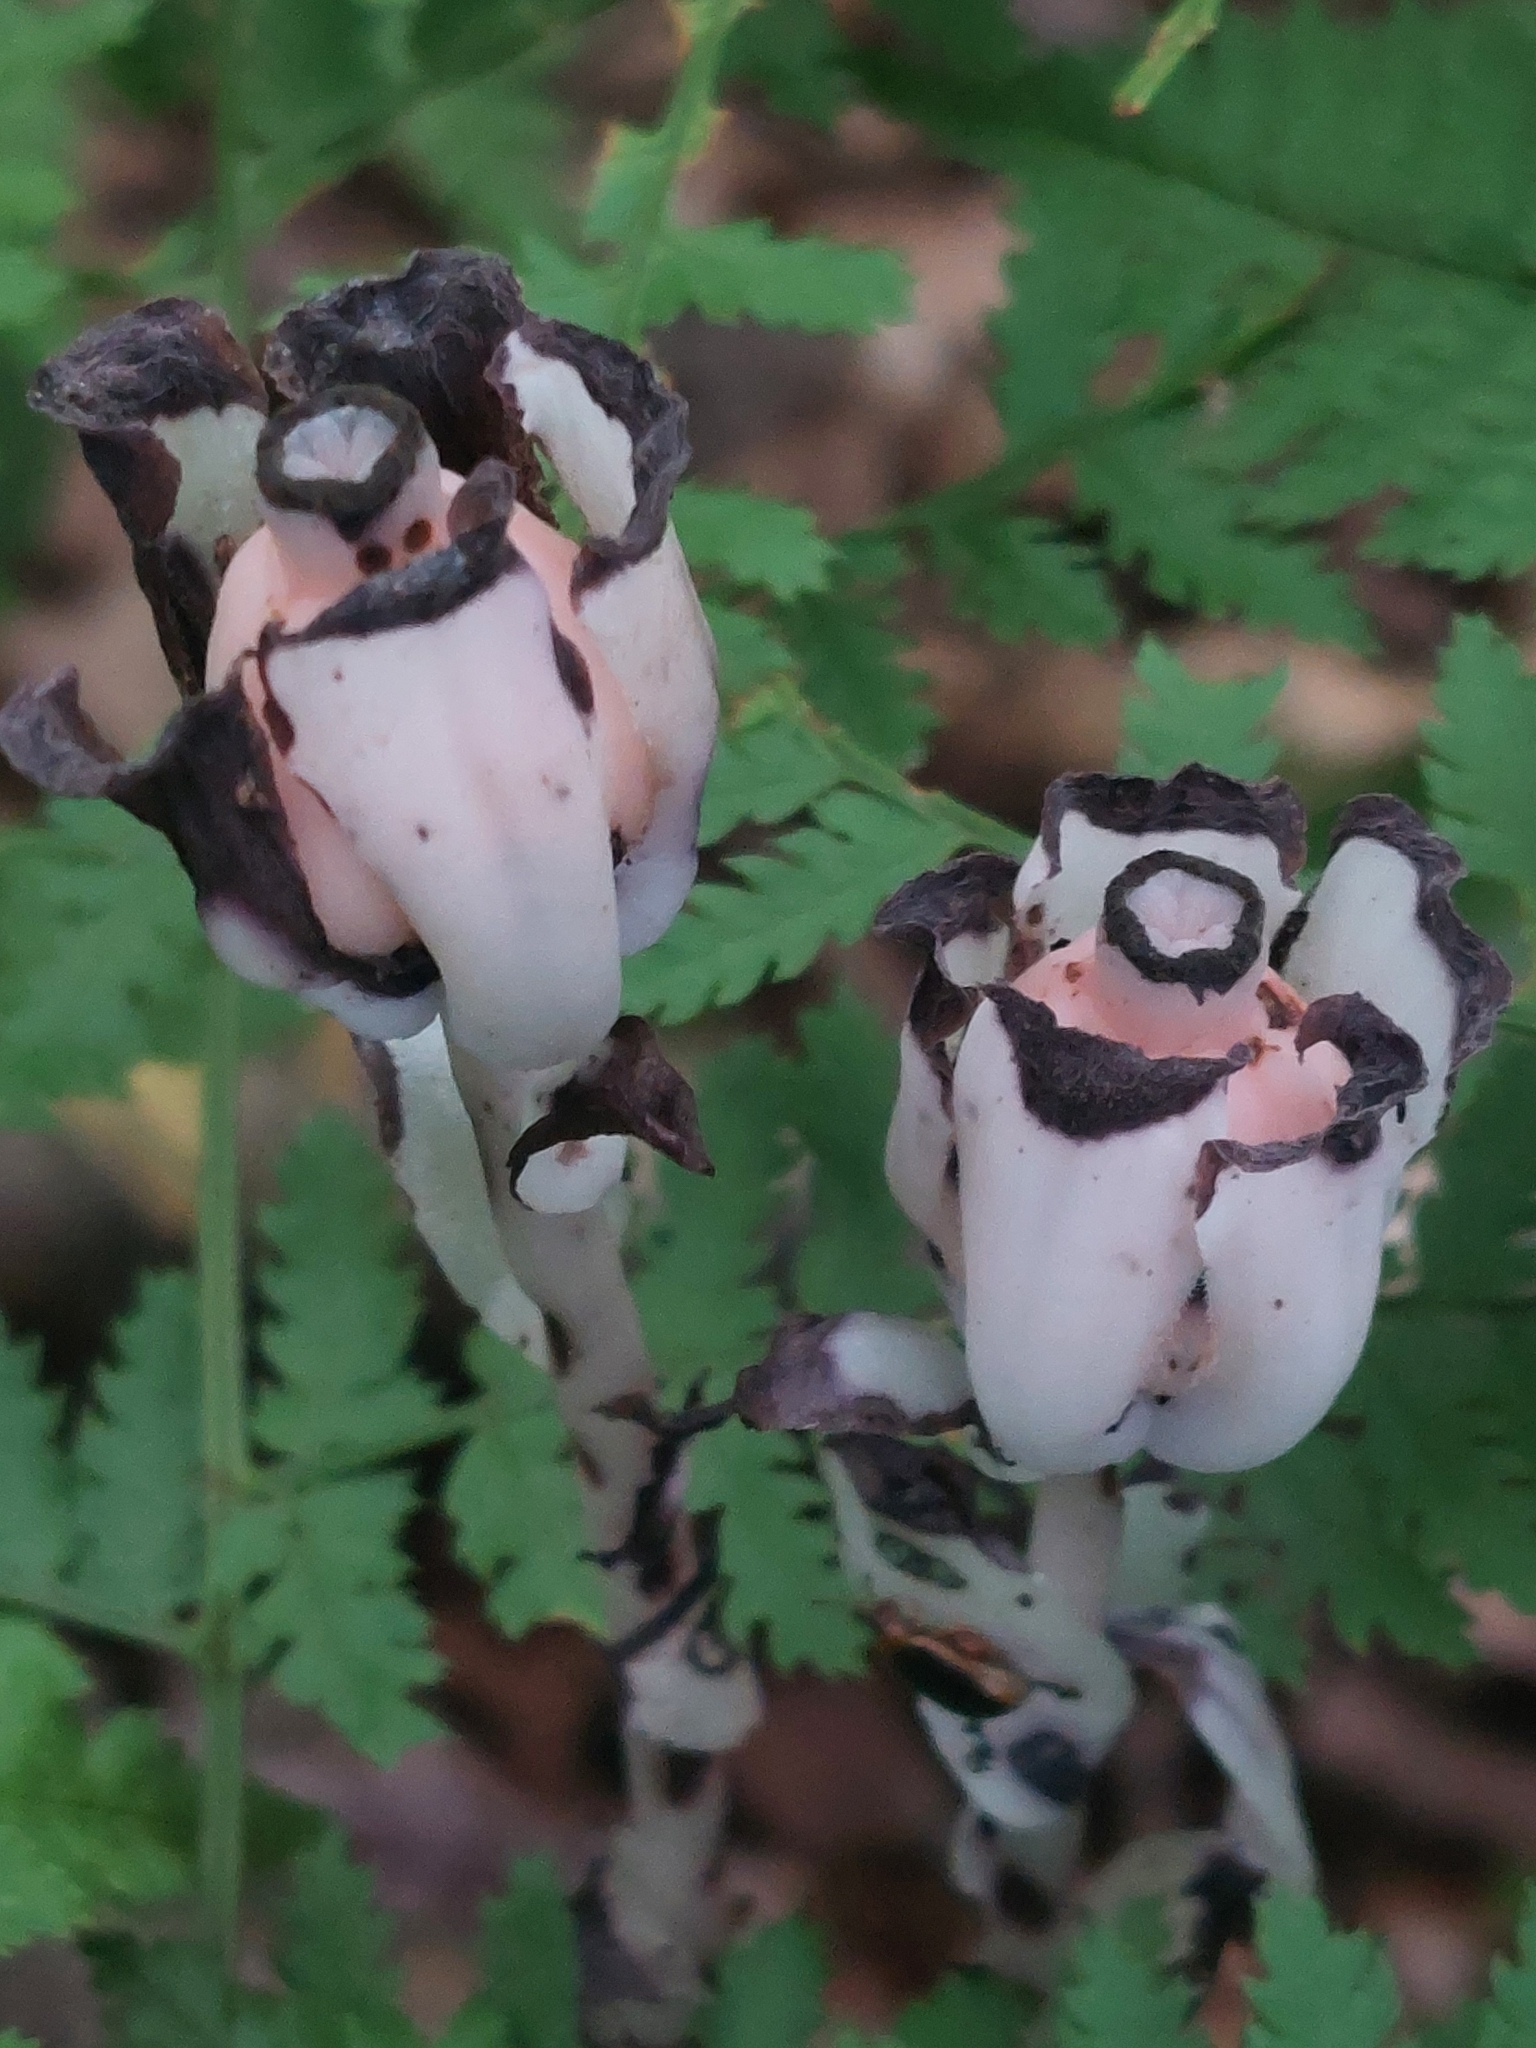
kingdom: Plantae
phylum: Tracheophyta
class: Magnoliopsida
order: Ericales
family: Ericaceae
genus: Monotropa
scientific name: Monotropa uniflora
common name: Convulsion root
